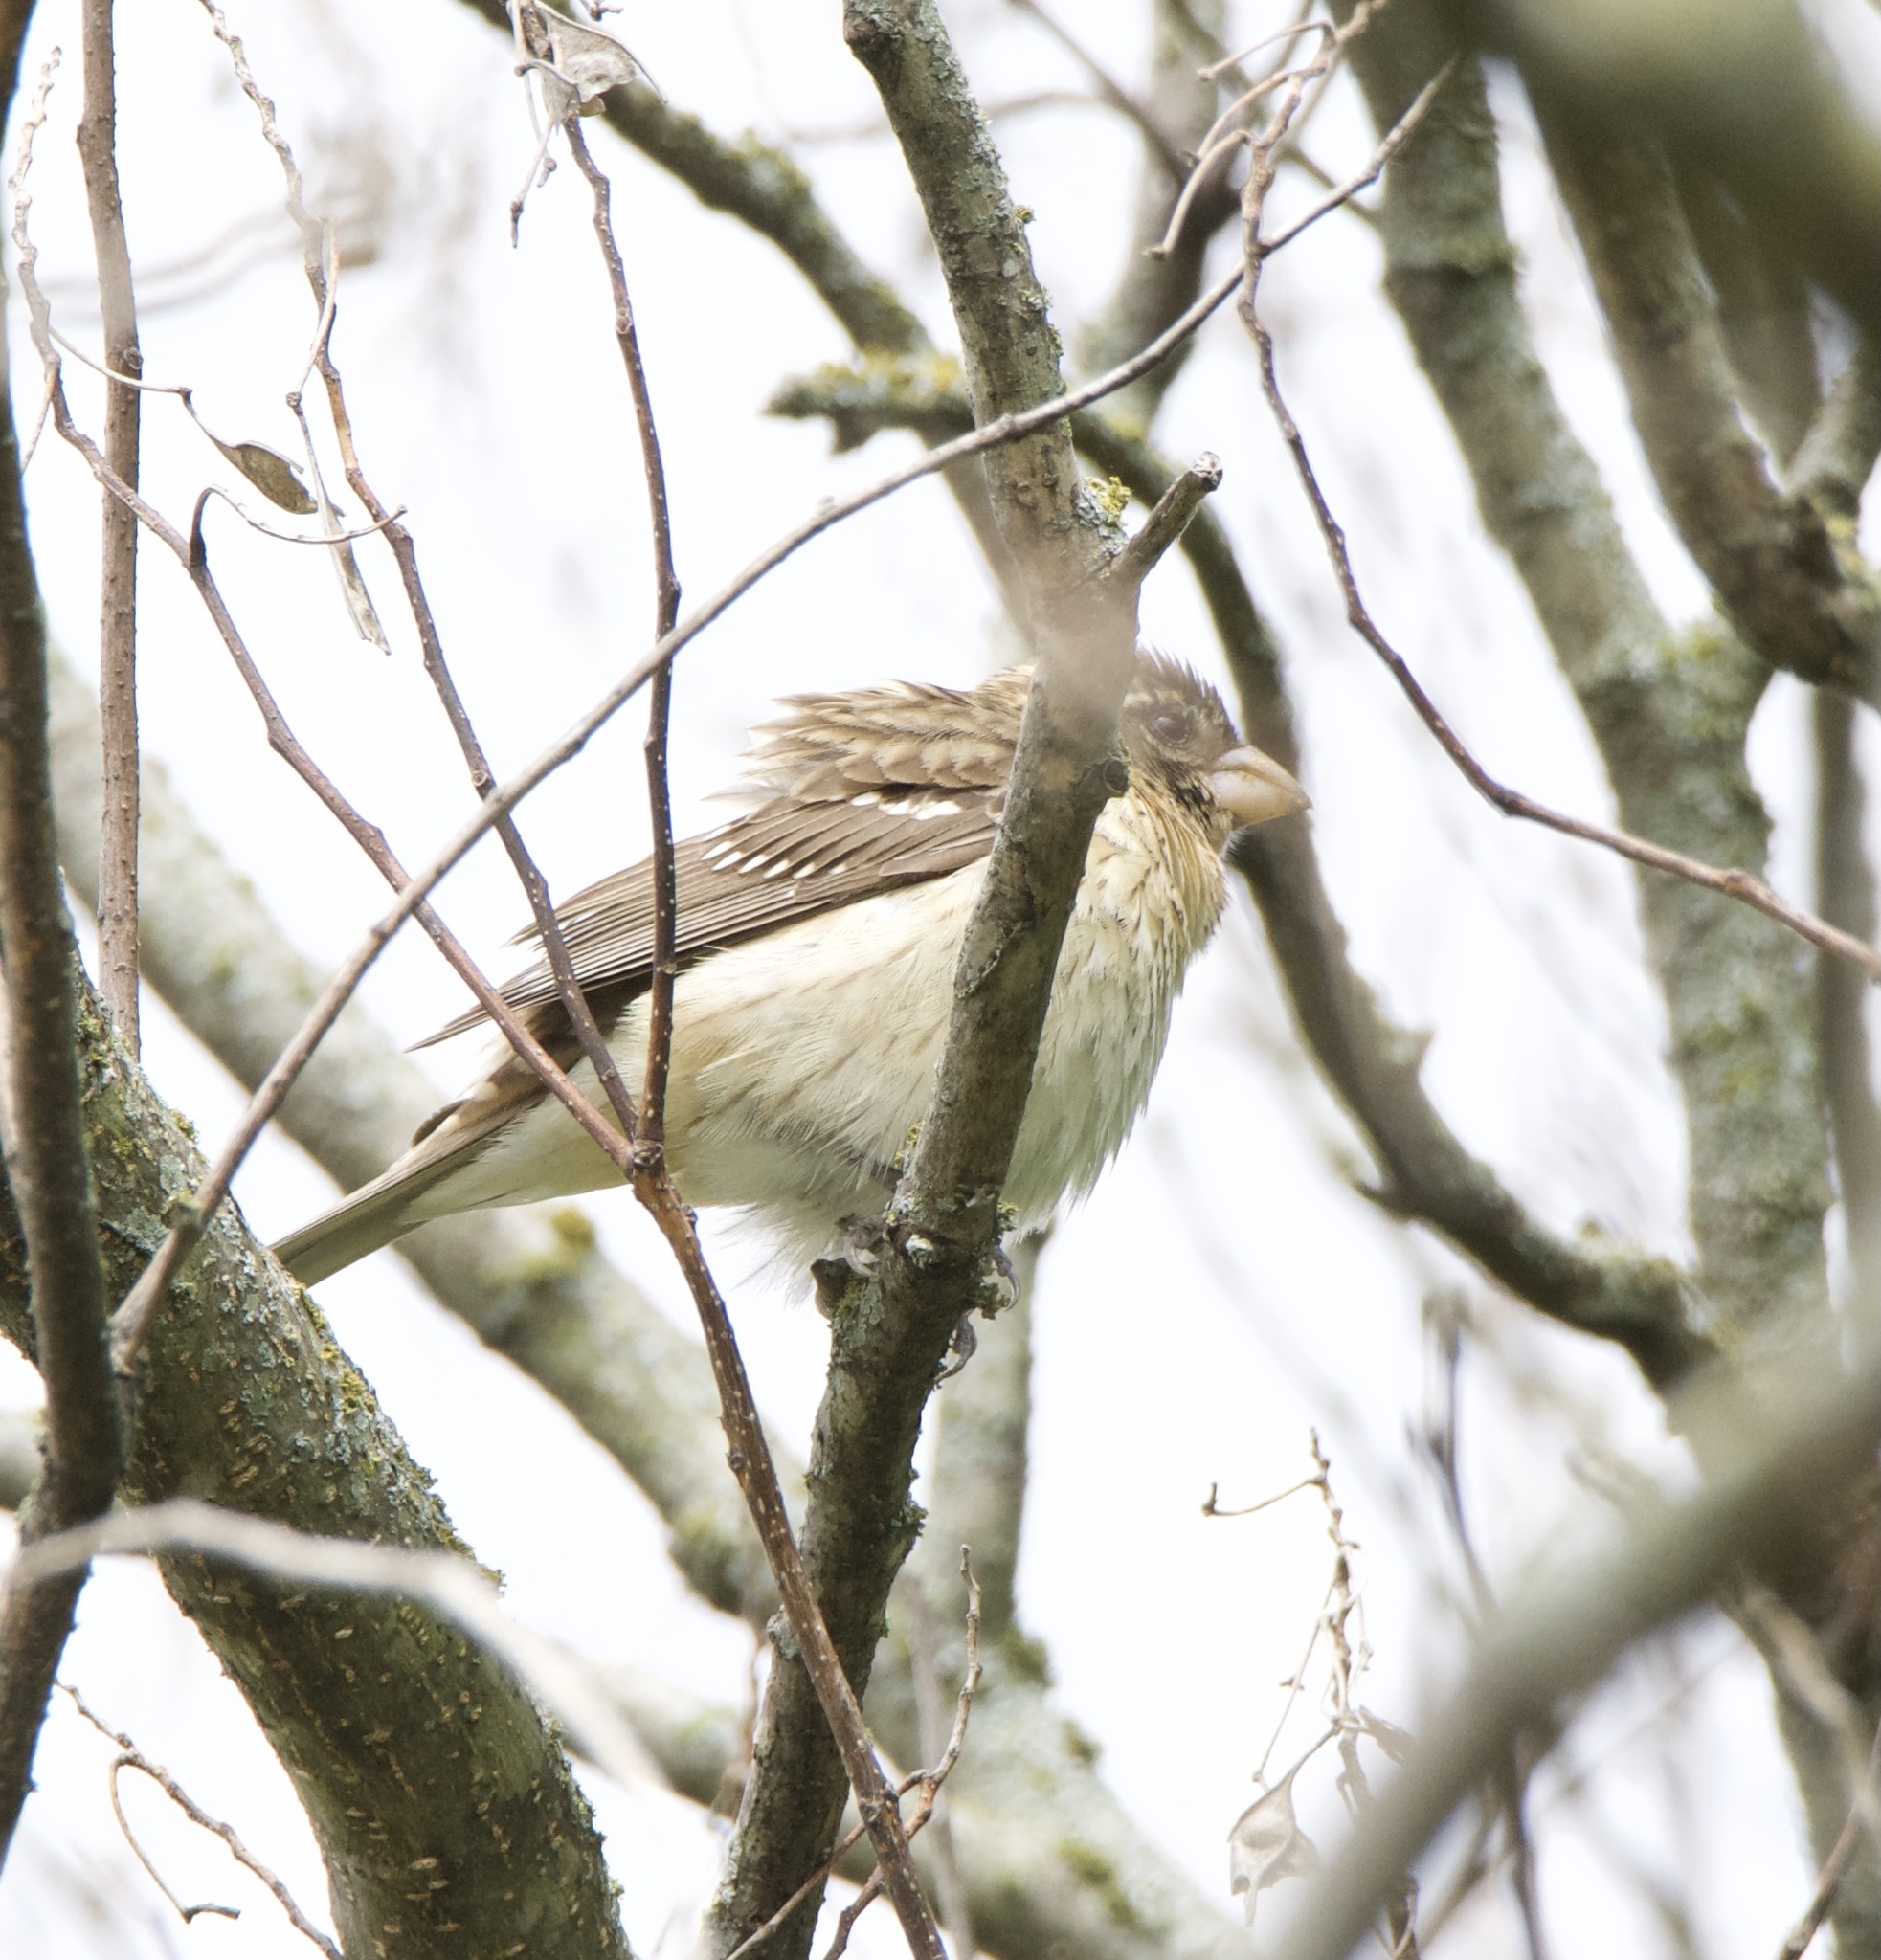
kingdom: Animalia
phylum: Chordata
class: Aves
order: Passeriformes
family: Cardinalidae
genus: Pheucticus
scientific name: Pheucticus ludovicianus
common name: Rose-breasted grosbeak
